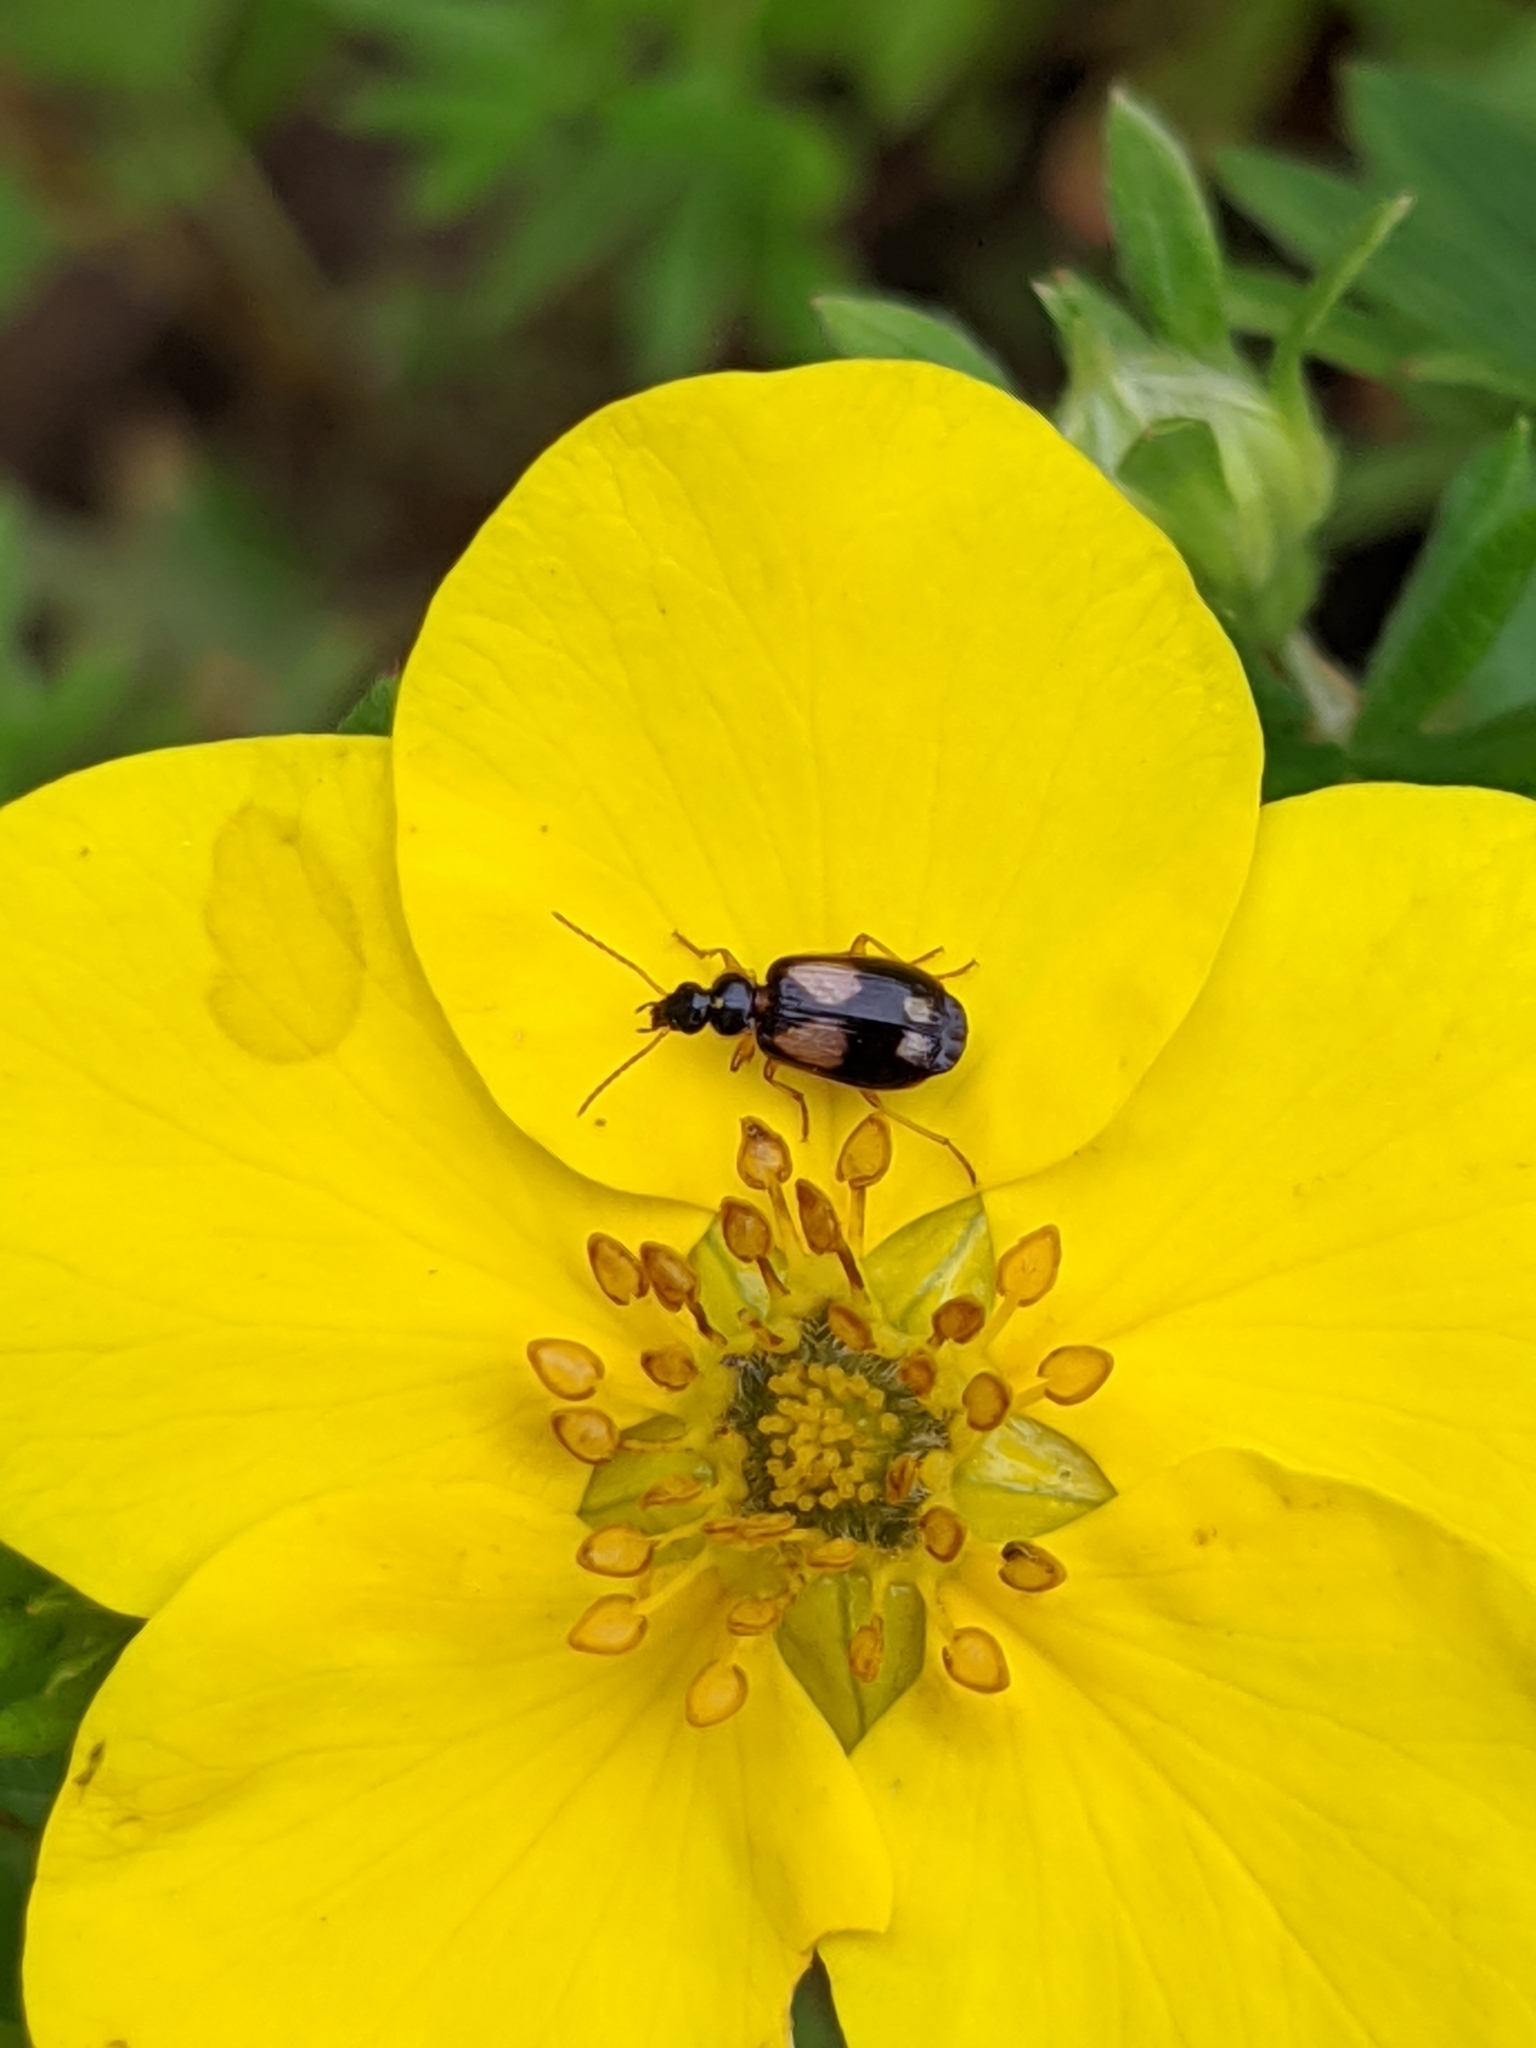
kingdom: Animalia
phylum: Arthropoda
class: Insecta
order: Coleoptera
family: Carabidae
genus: Lebia
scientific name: Lebia ornata
